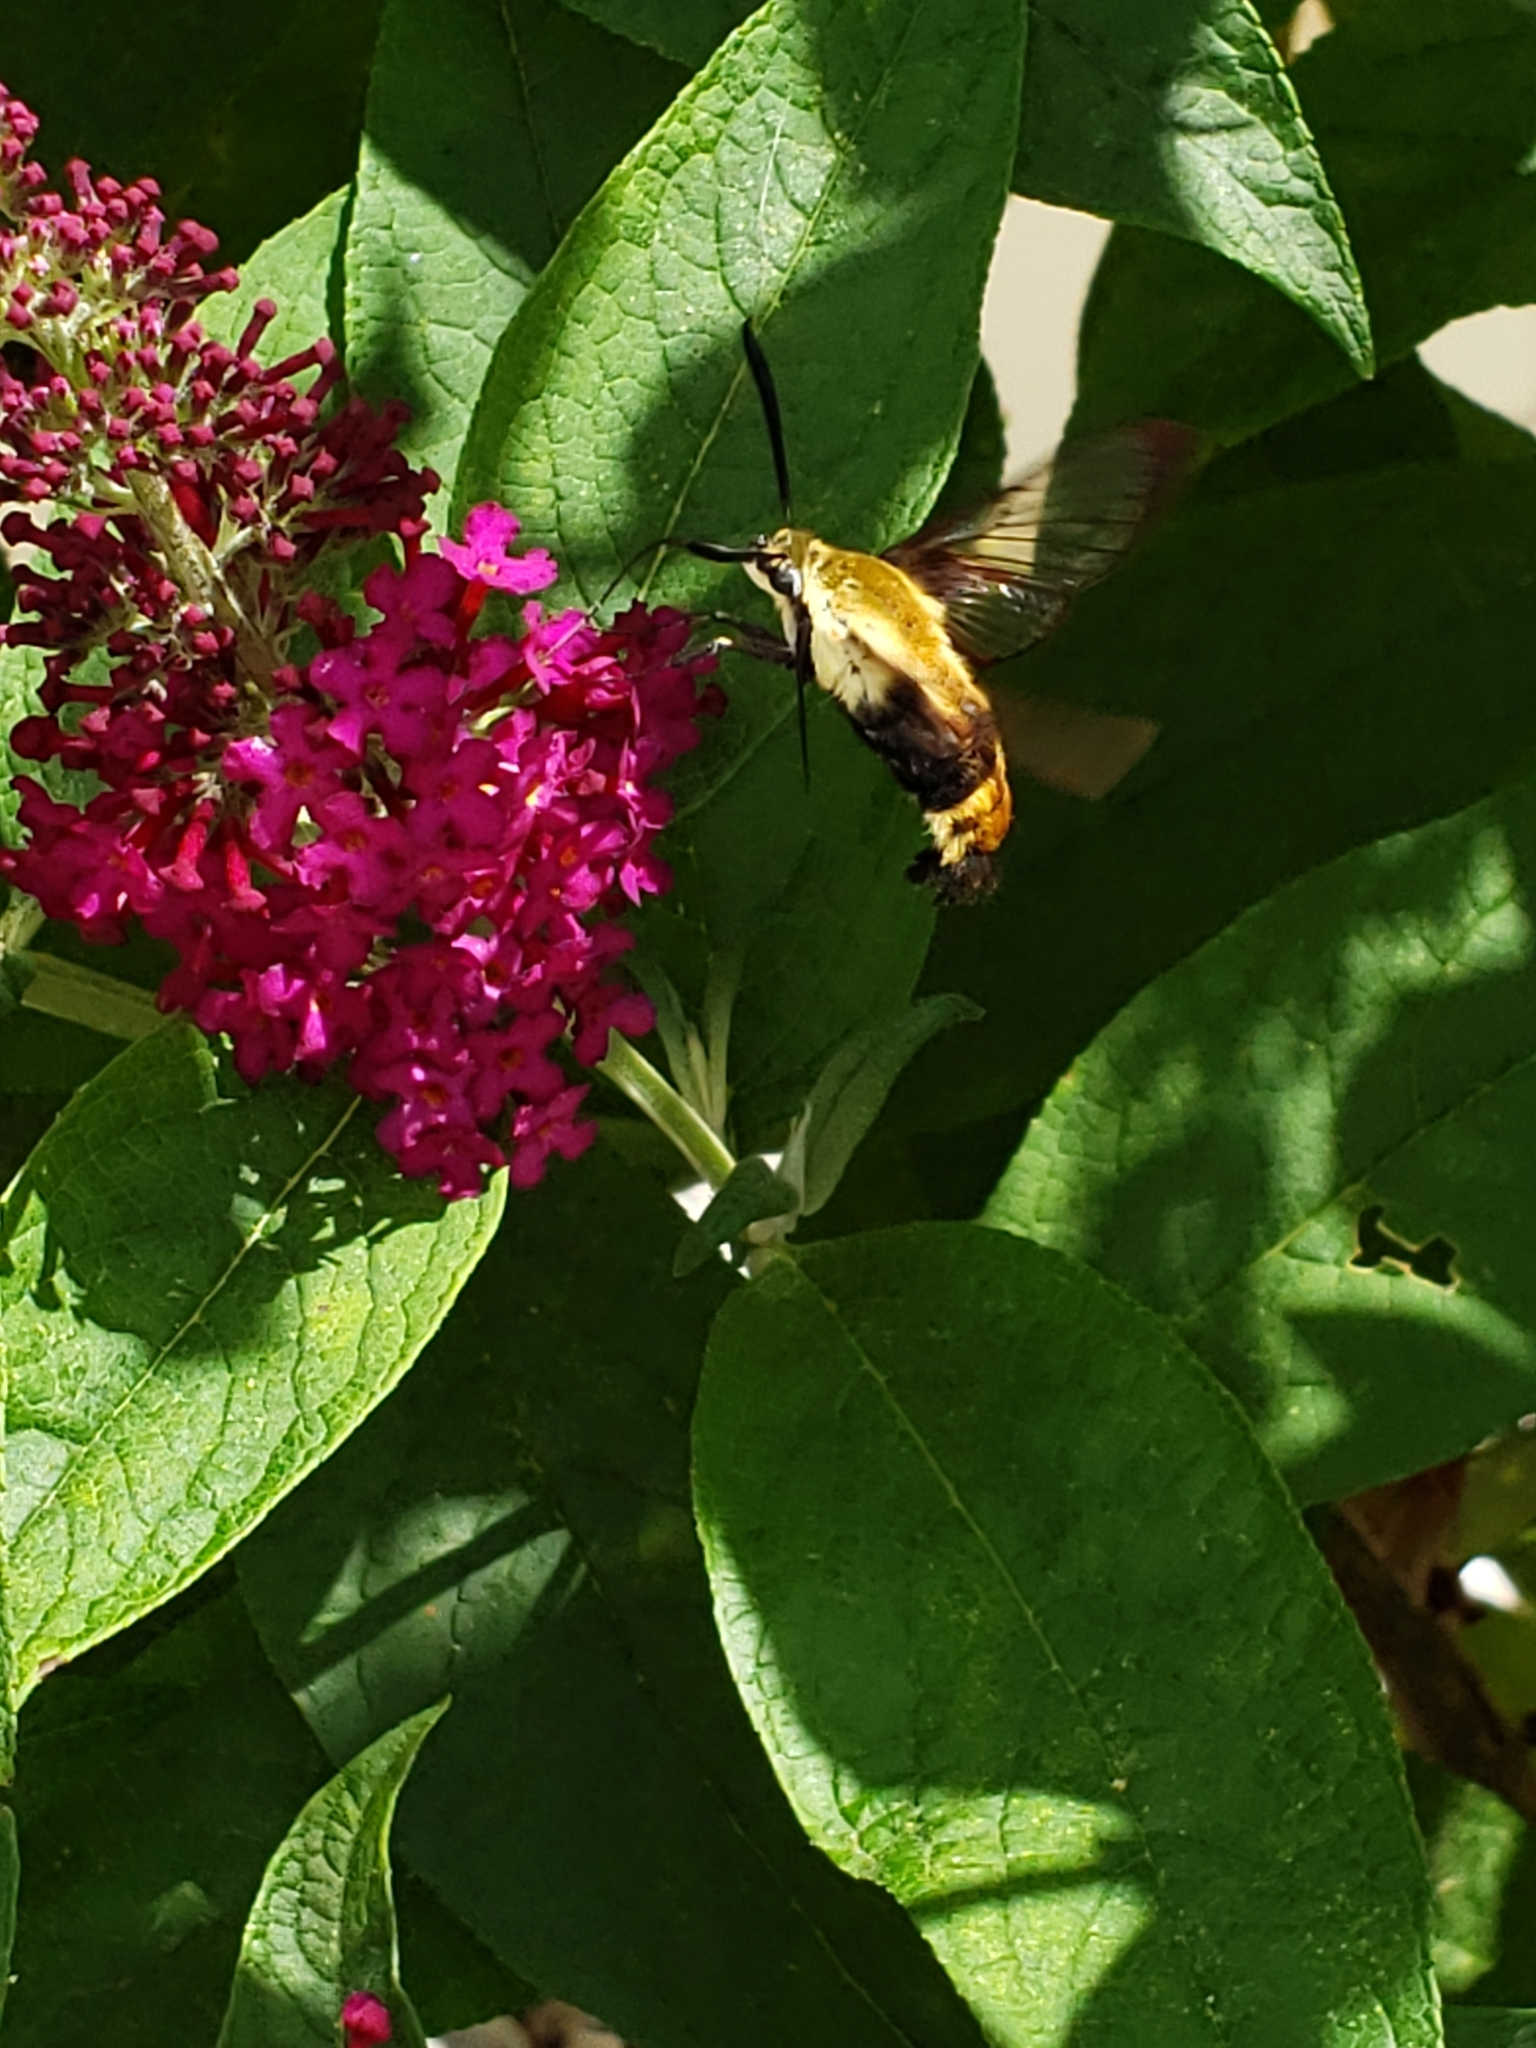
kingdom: Animalia
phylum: Arthropoda
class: Insecta
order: Lepidoptera
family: Sphingidae
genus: Hemaris
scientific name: Hemaris diffinis
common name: Bumblebee moth
